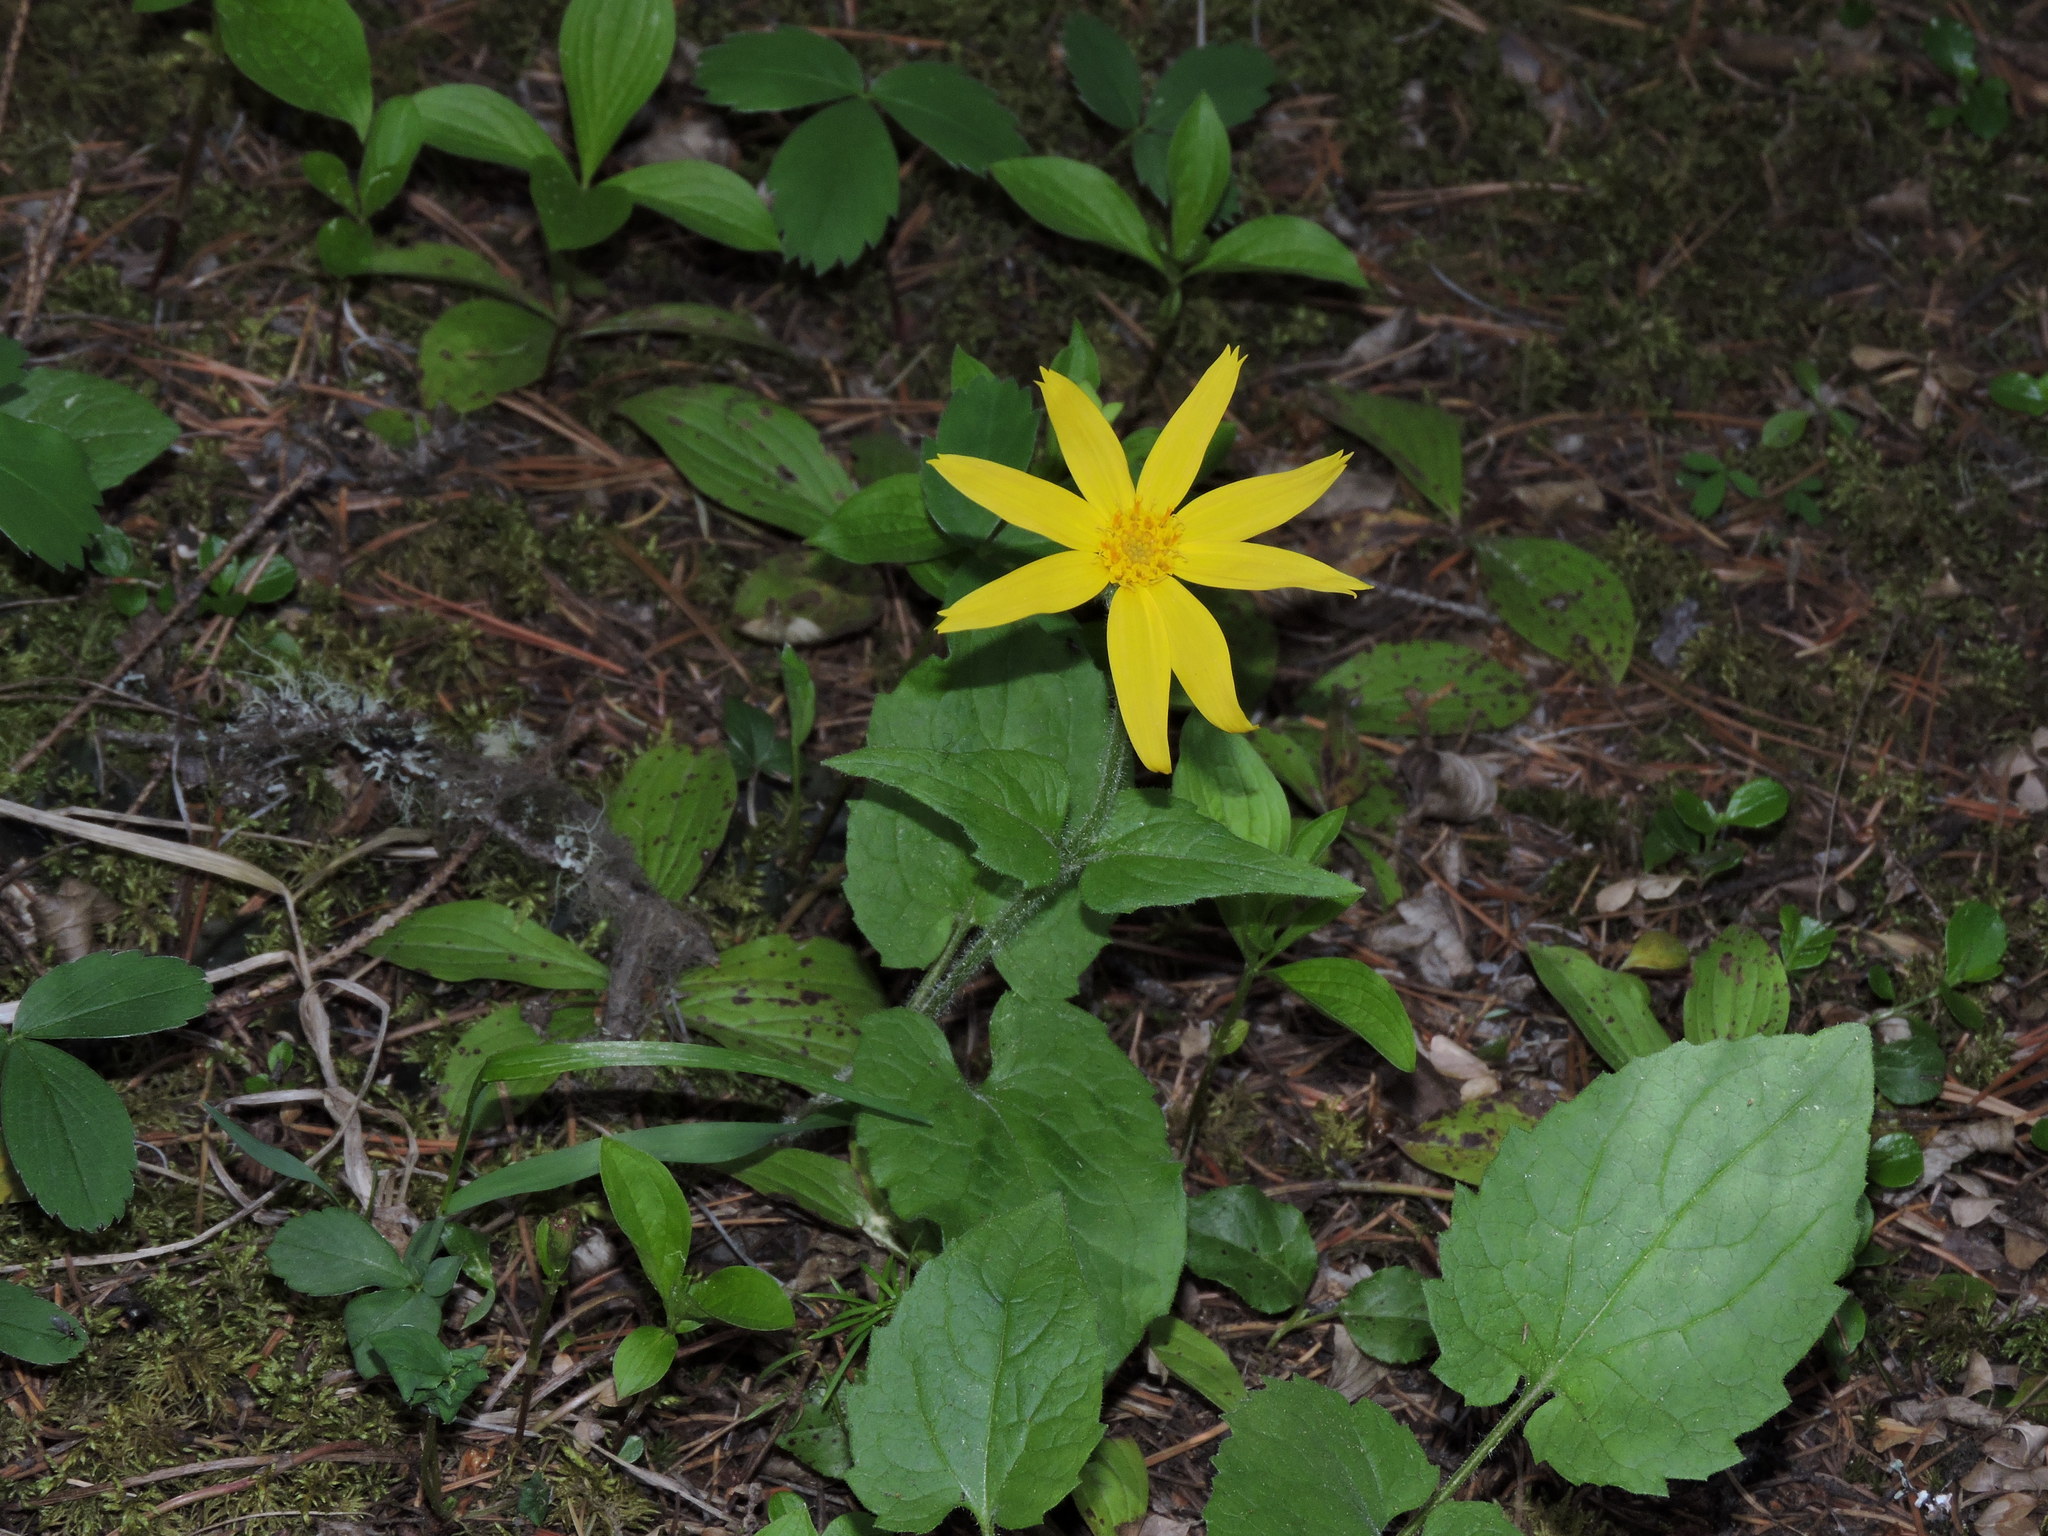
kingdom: Plantae
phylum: Tracheophyta
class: Magnoliopsida
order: Asterales
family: Asteraceae
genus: Arnica
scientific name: Arnica cordifolia
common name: Heart-leaf arnica
